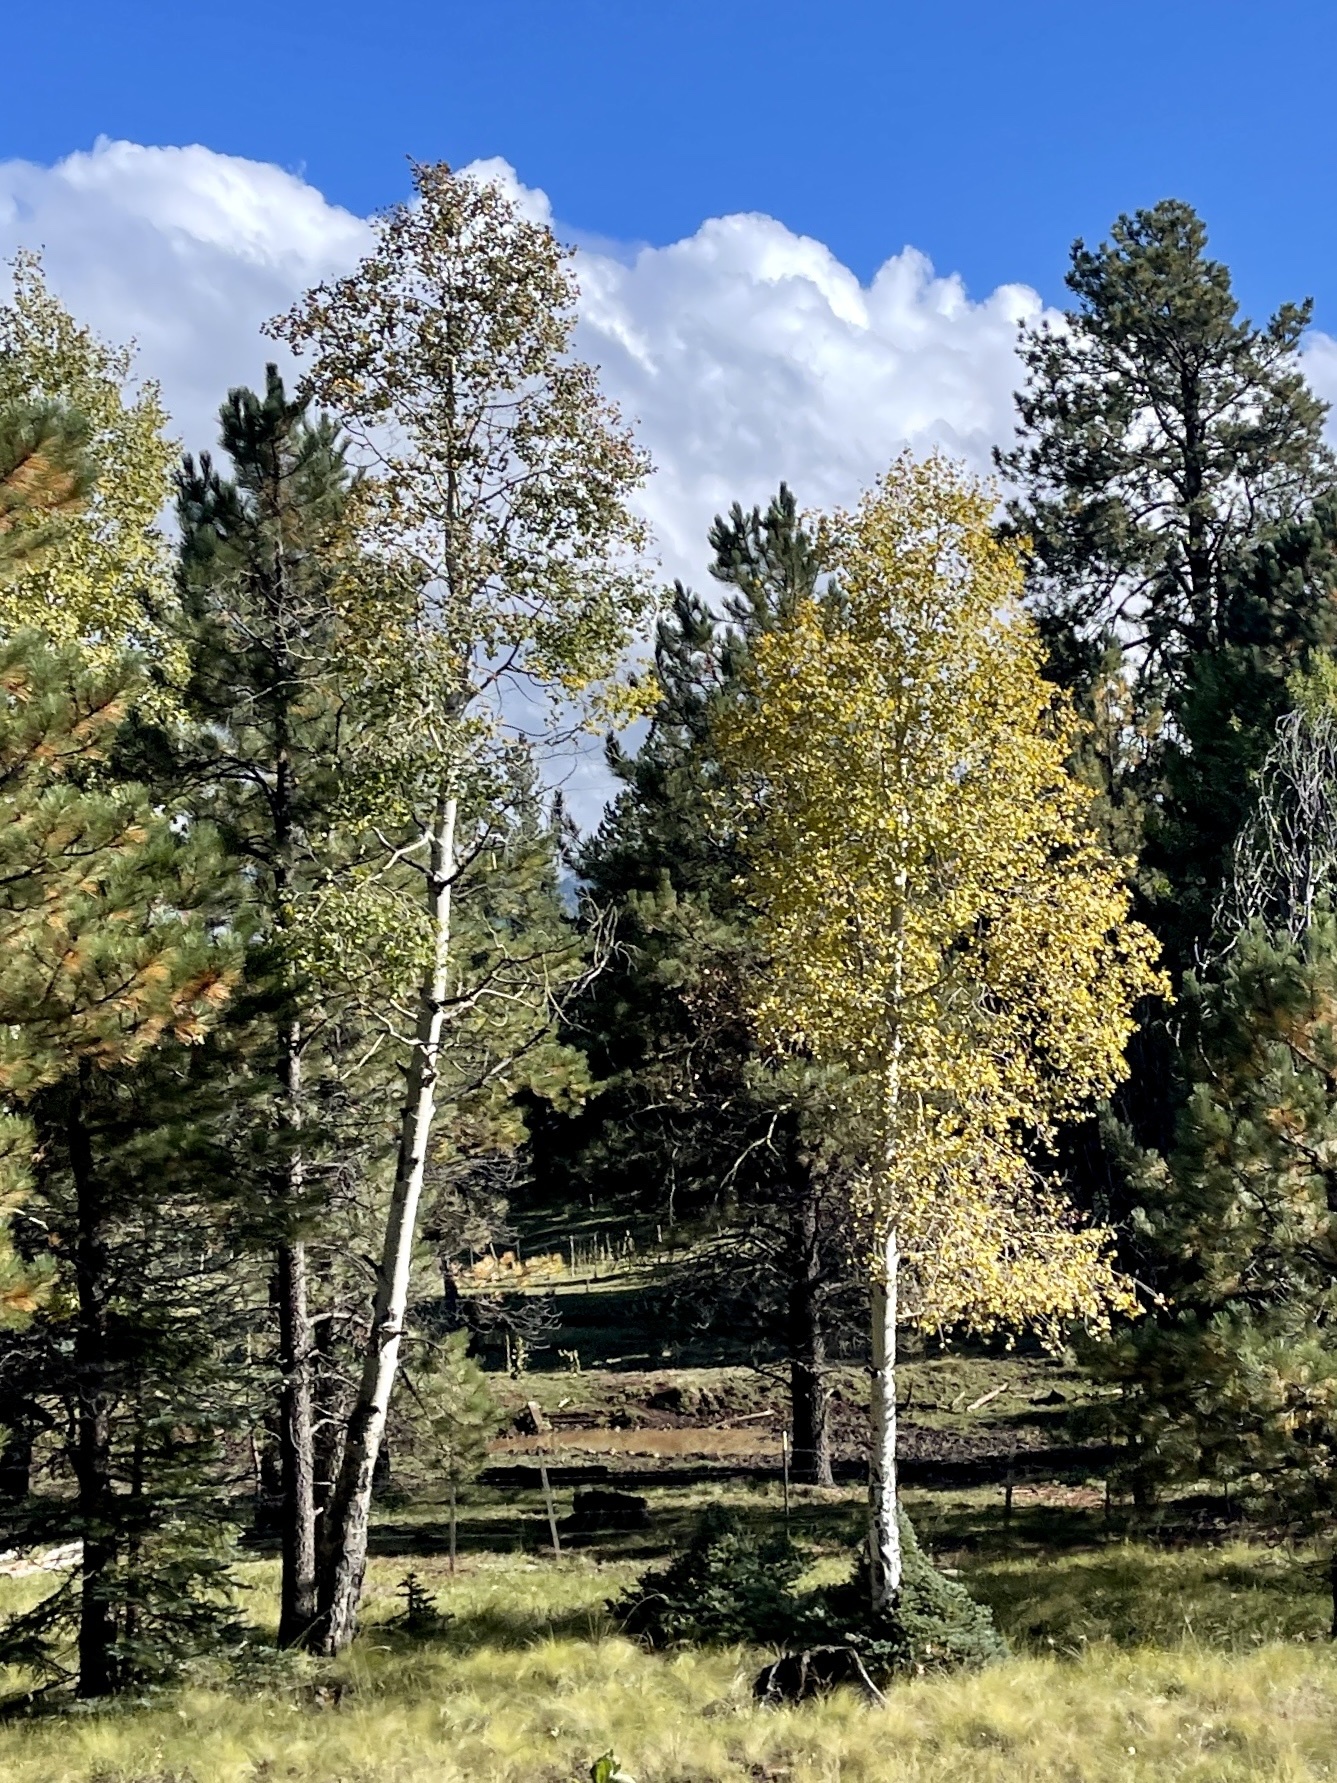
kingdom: Plantae
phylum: Tracheophyta
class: Magnoliopsida
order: Malpighiales
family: Salicaceae
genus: Populus
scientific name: Populus tremuloides
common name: Quaking aspen
